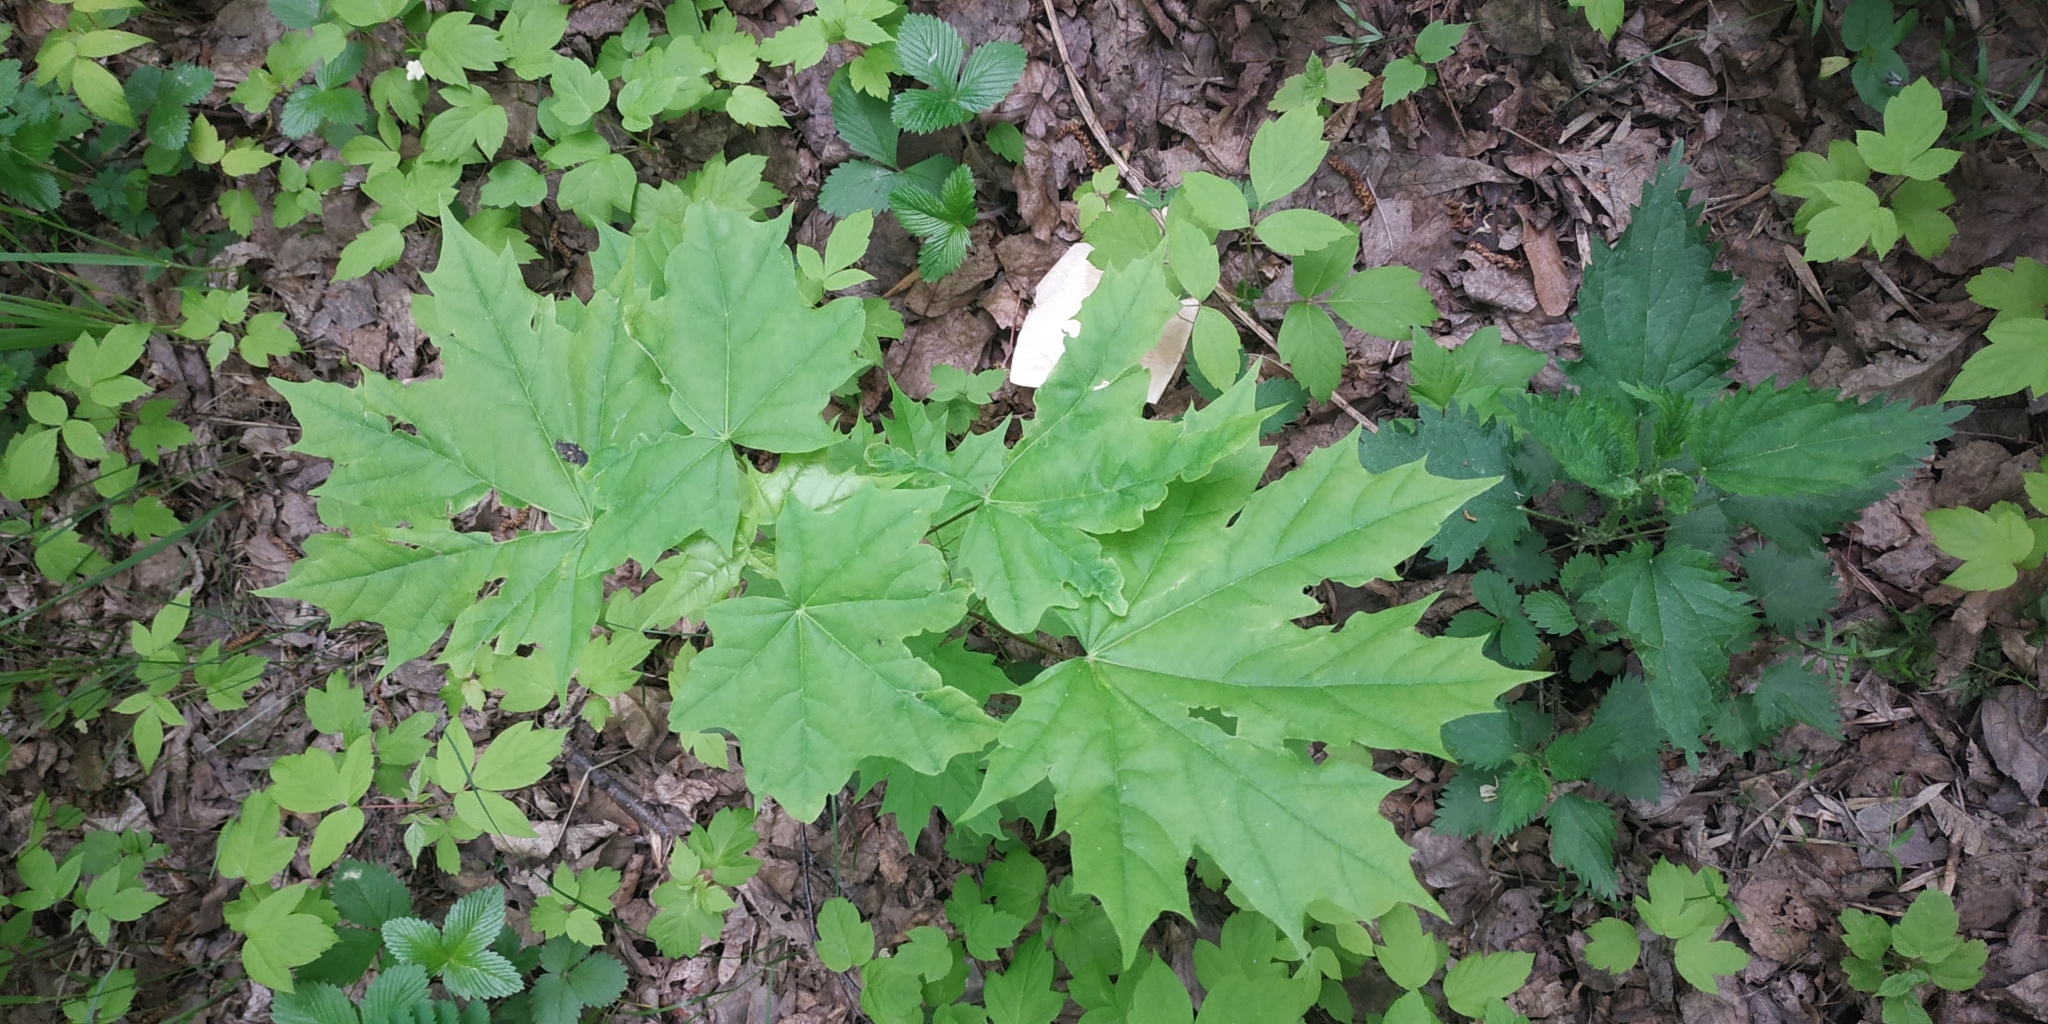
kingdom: Plantae
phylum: Tracheophyta
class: Magnoliopsida
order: Sapindales
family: Sapindaceae
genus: Acer
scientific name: Acer platanoides
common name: Norway maple
